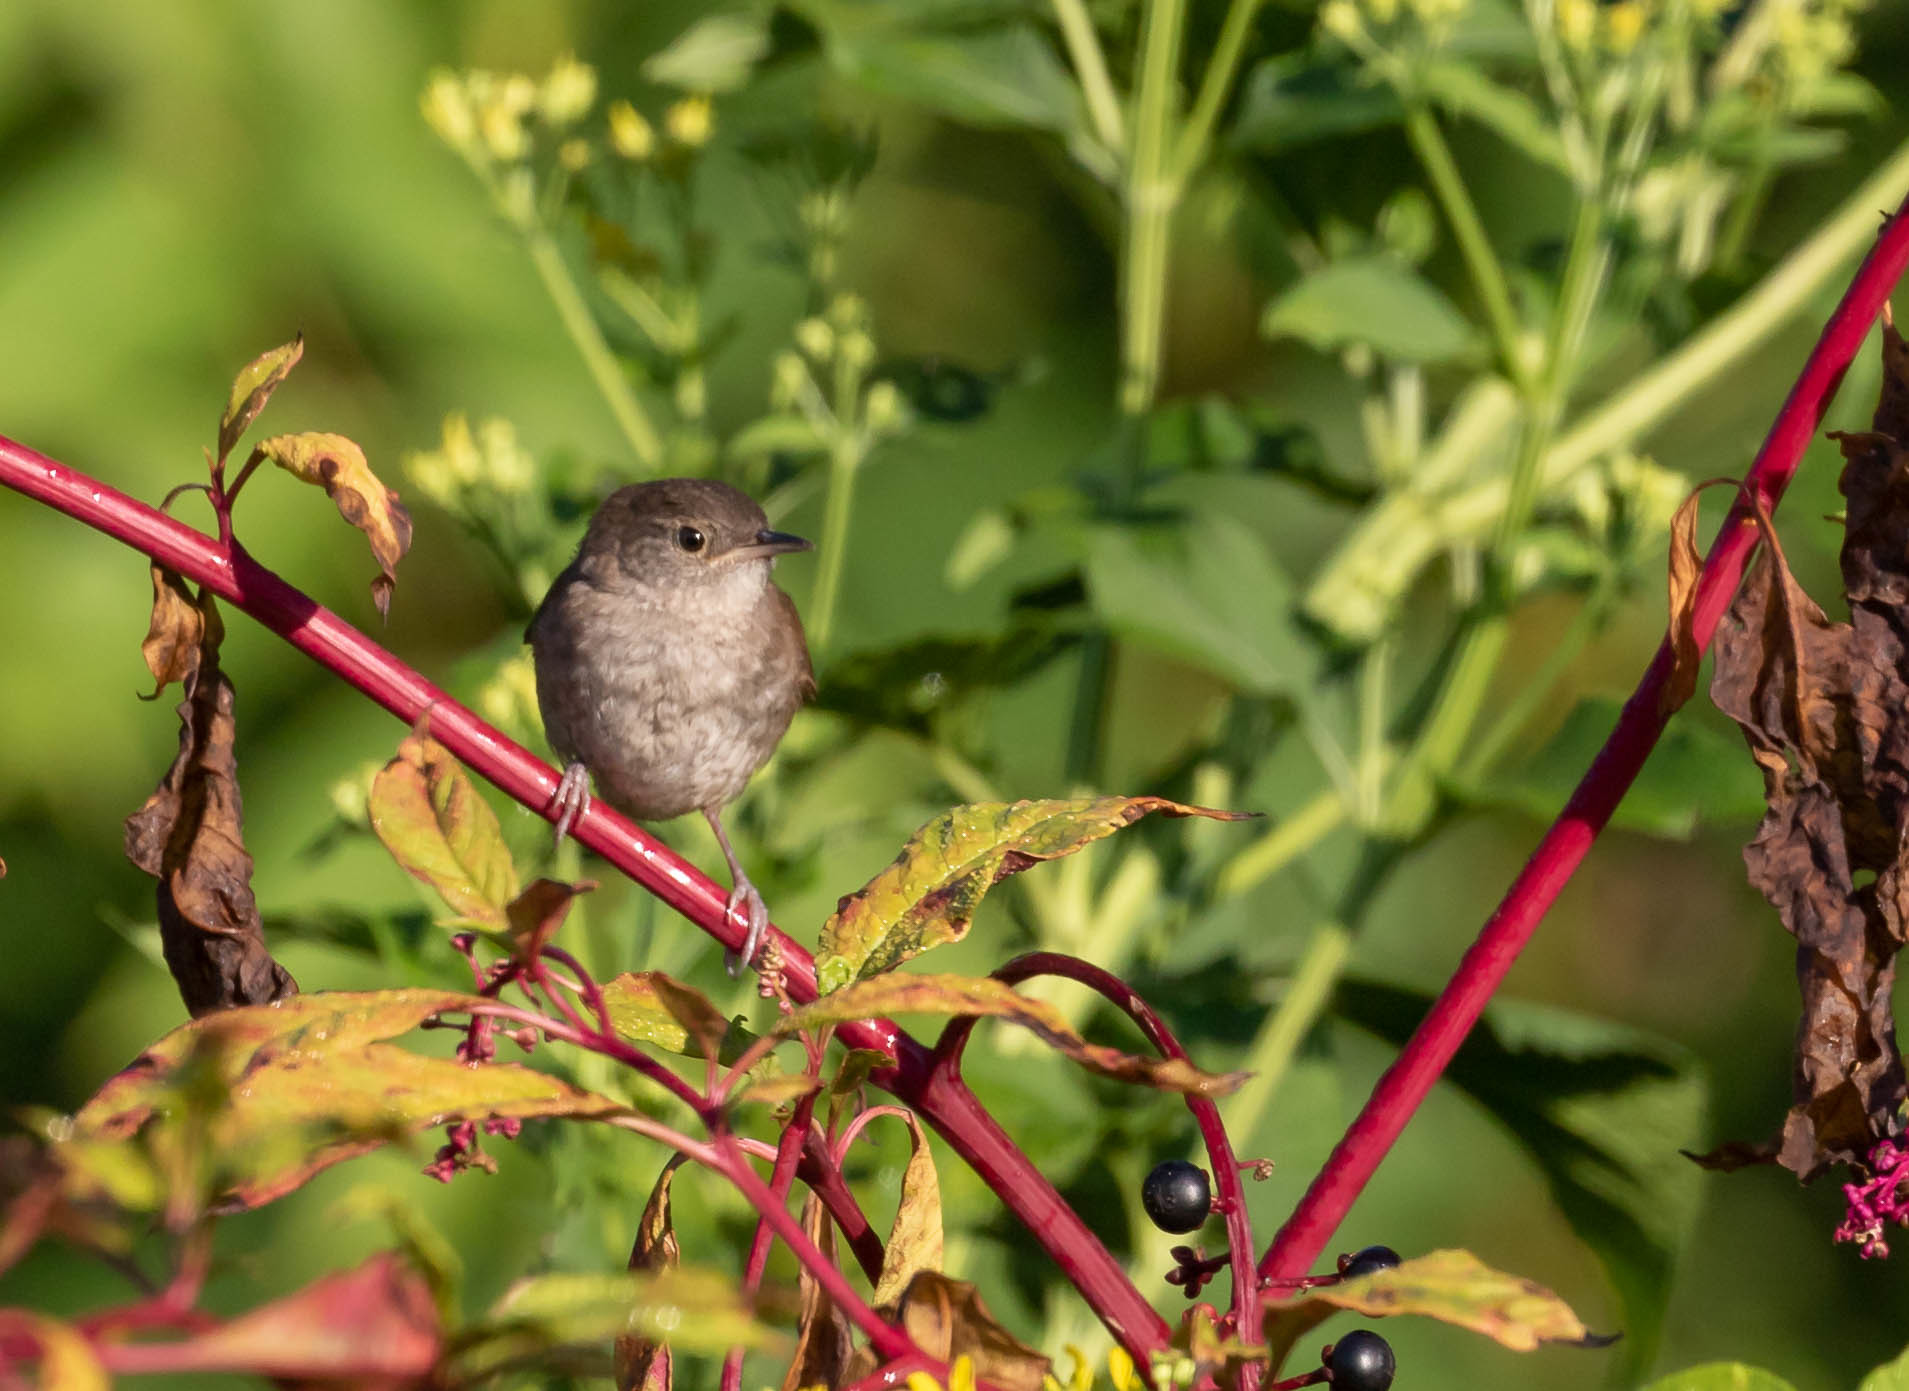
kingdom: Animalia
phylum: Chordata
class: Aves
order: Passeriformes
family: Troglodytidae
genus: Troglodytes
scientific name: Troglodytes aedon
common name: House wren
